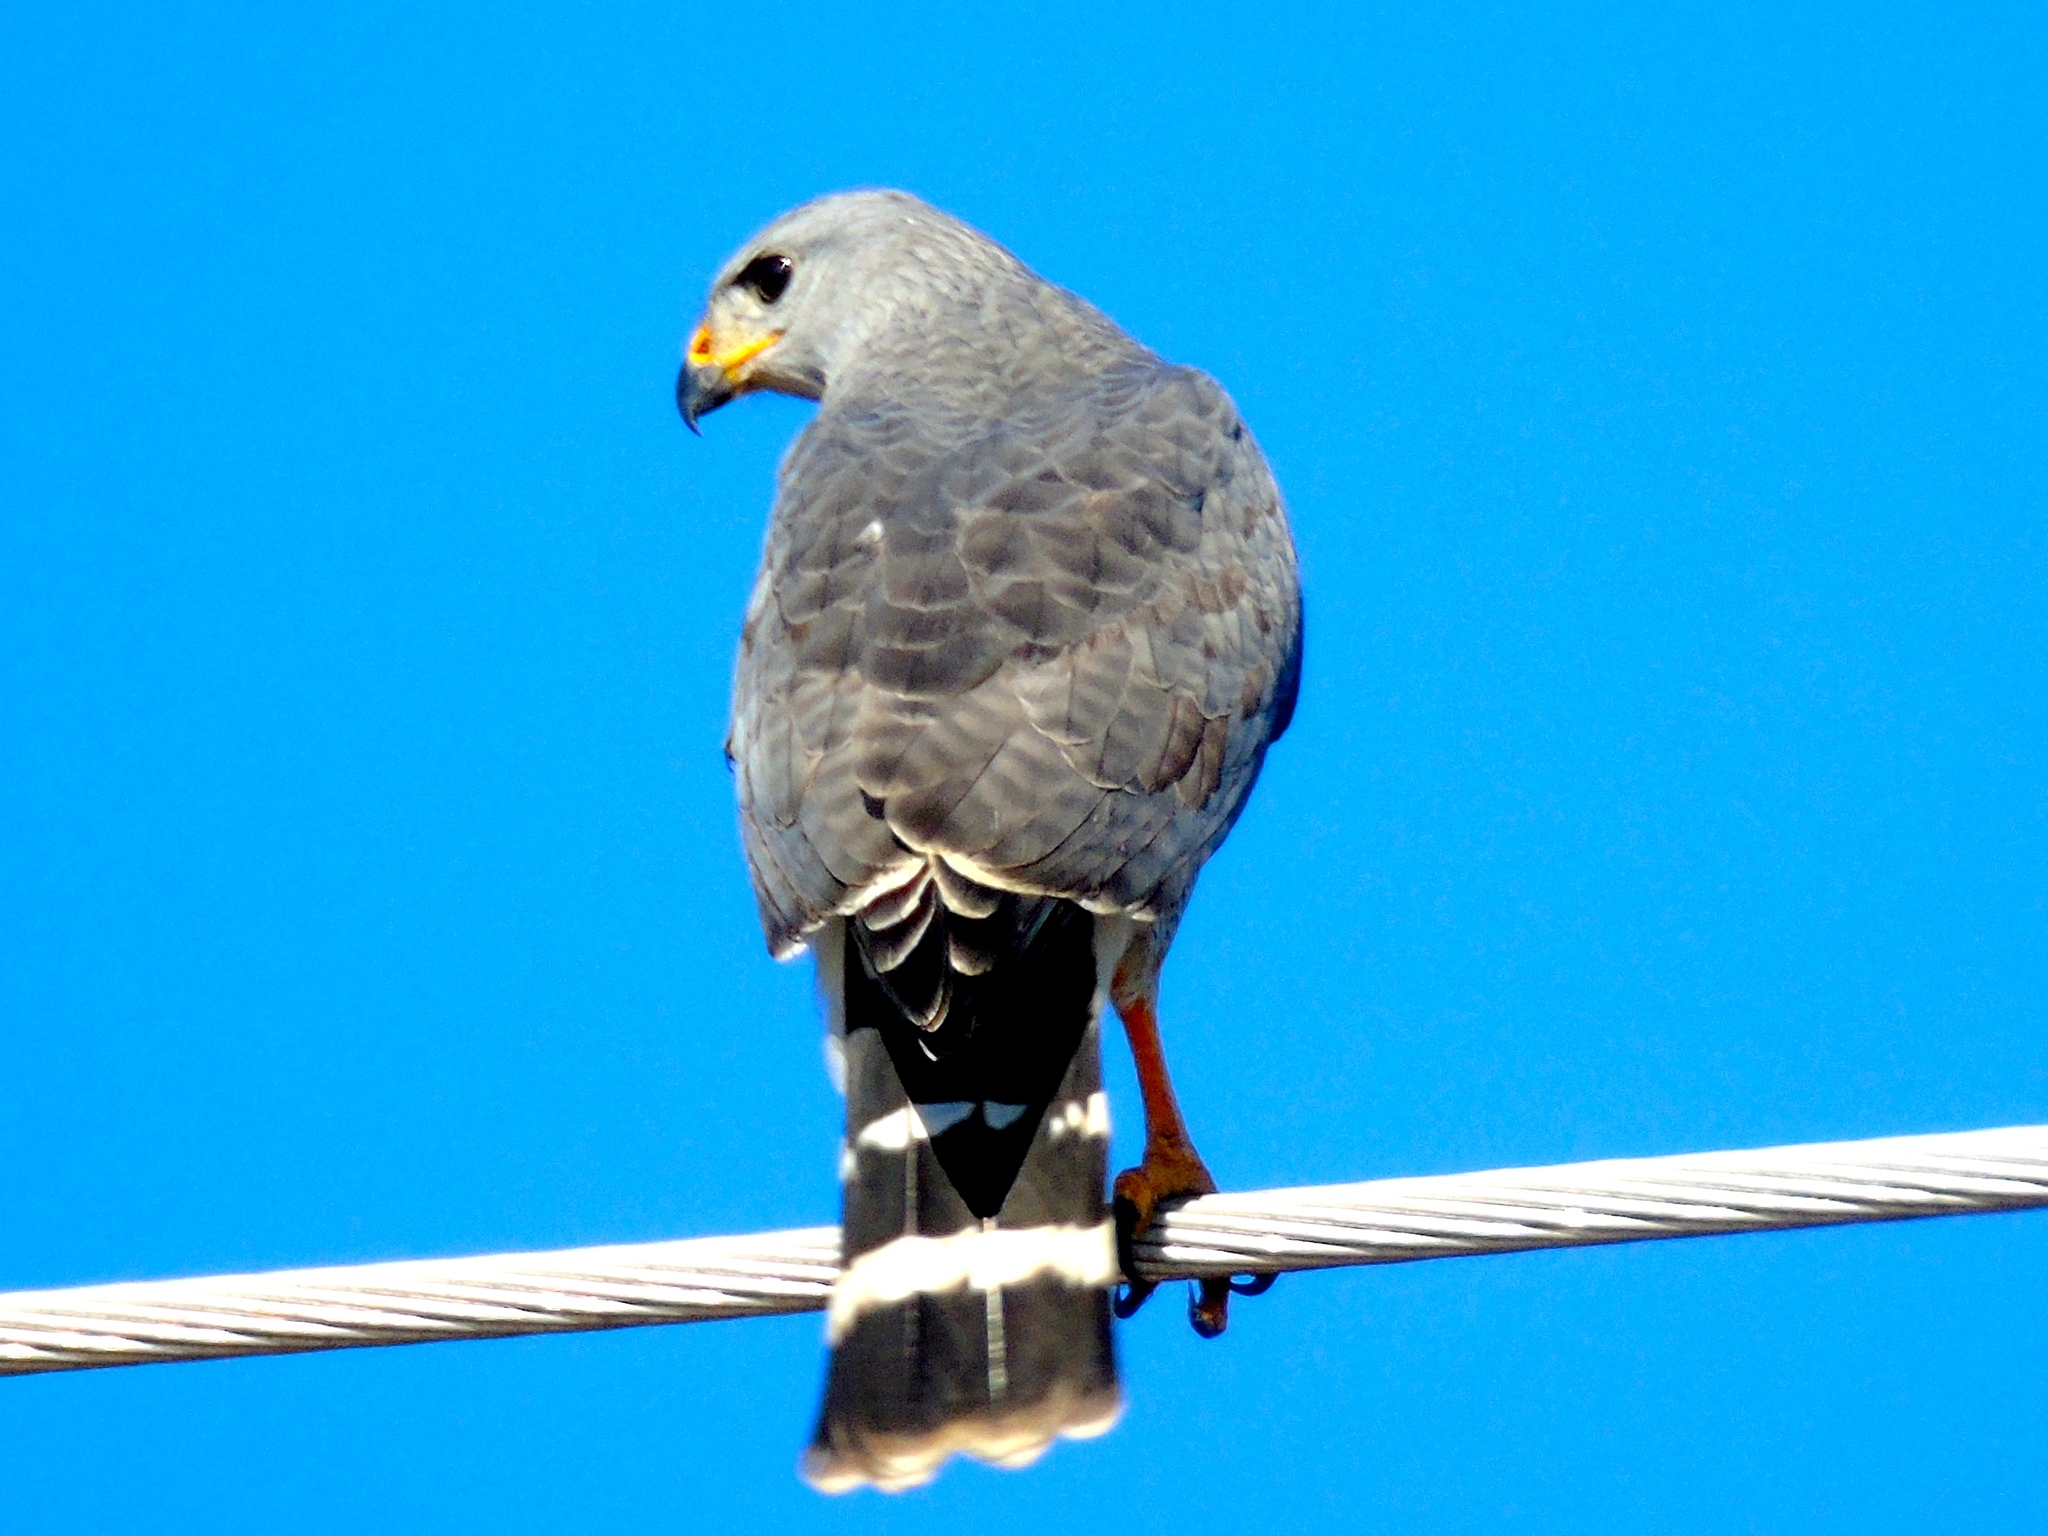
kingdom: Animalia
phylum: Chordata
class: Aves
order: Accipitriformes
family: Accipitridae
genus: Buteo
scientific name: Buteo nitidus
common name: Grey-lined hawk
